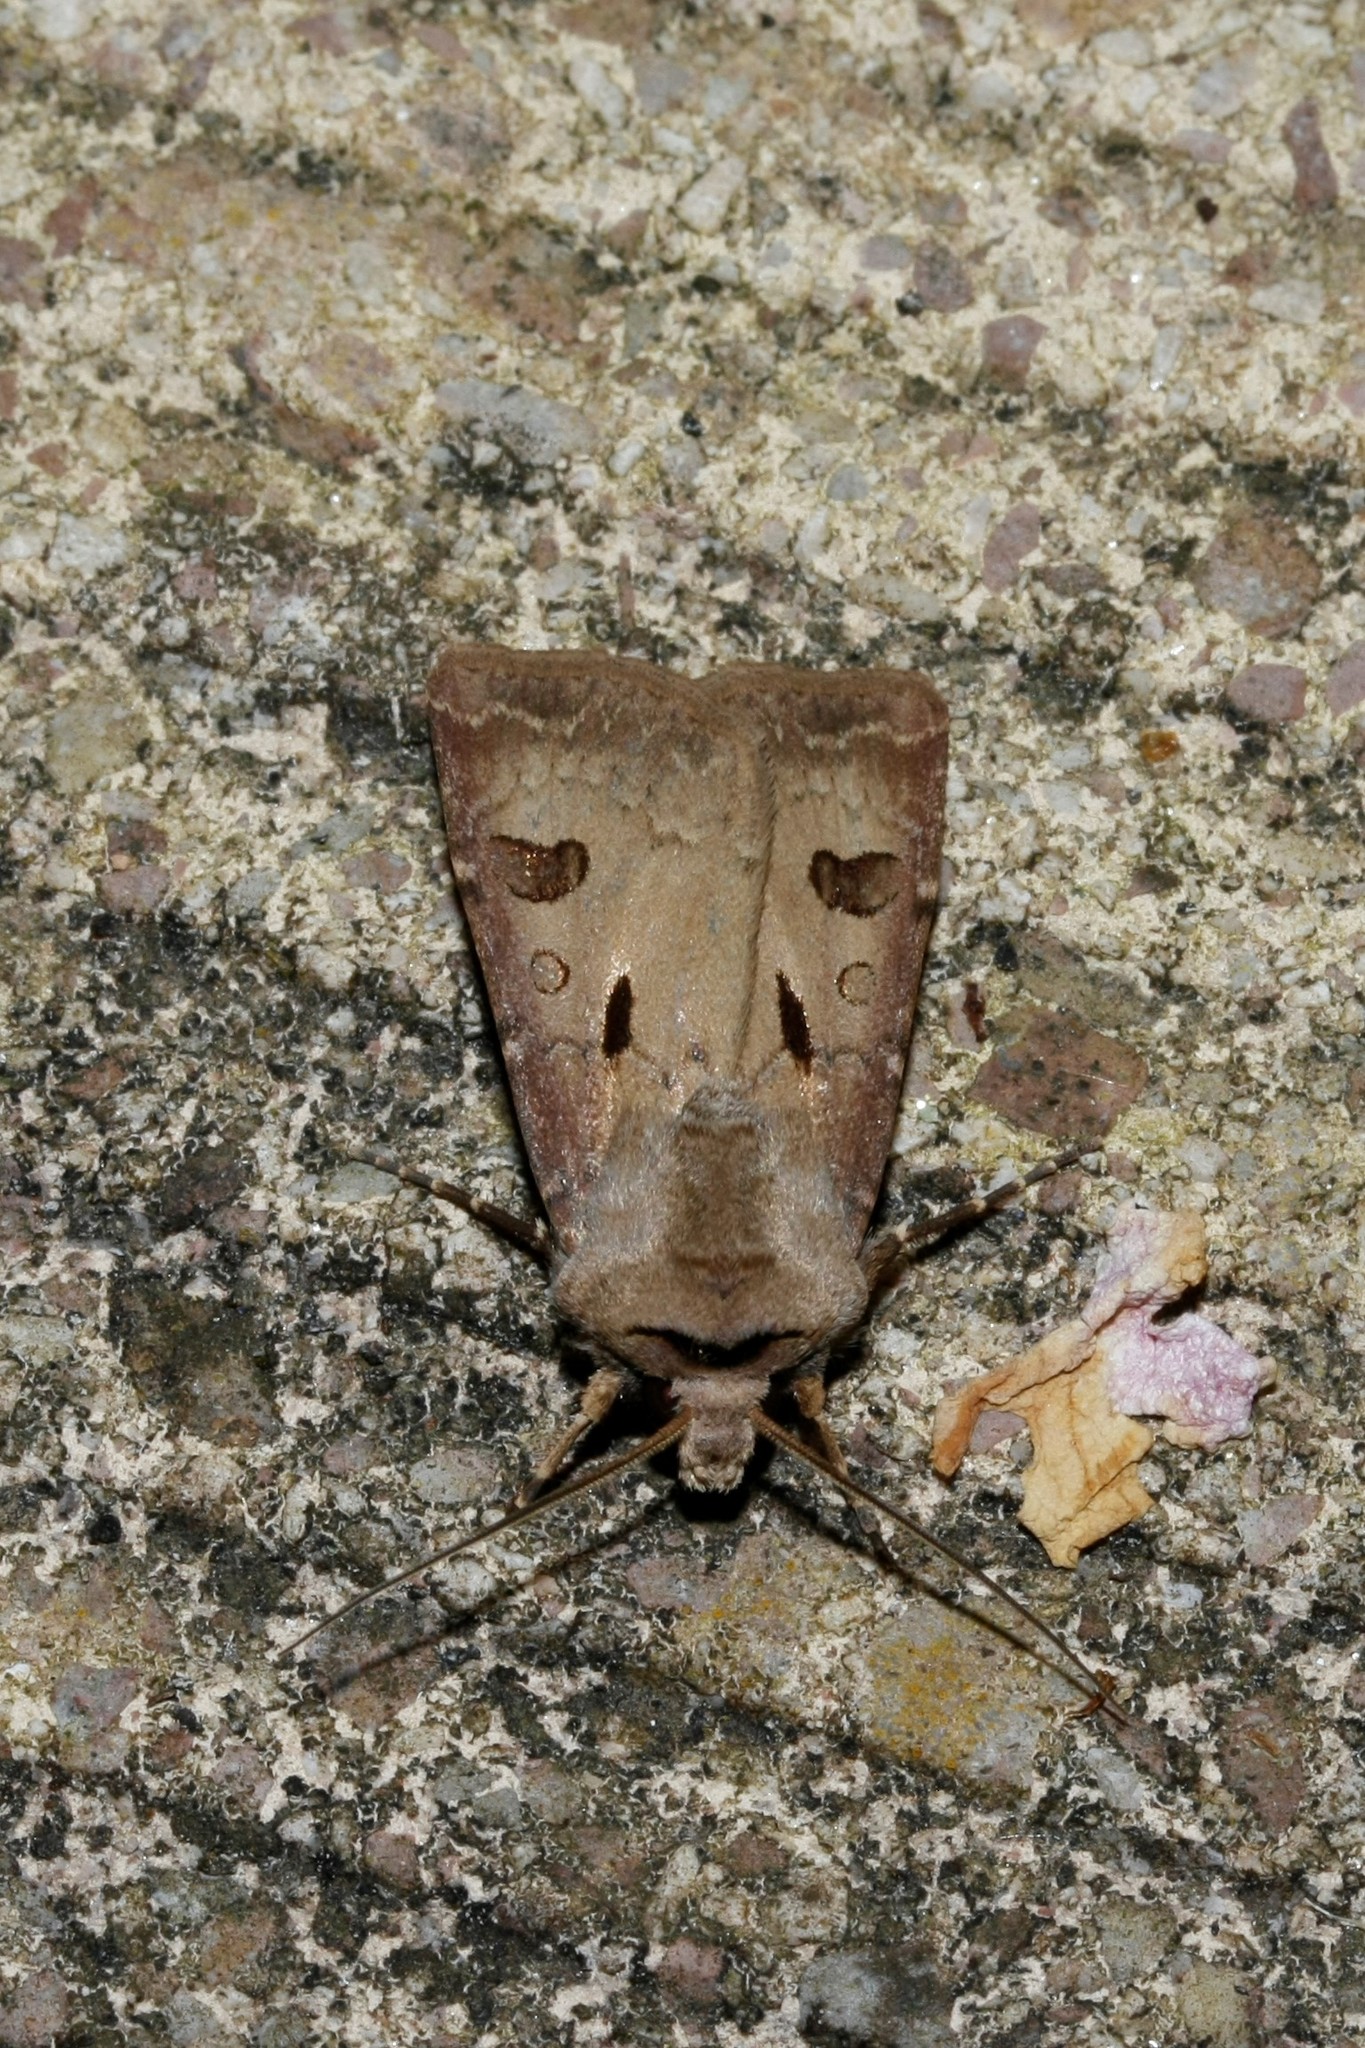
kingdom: Animalia
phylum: Arthropoda
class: Insecta
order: Lepidoptera
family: Noctuidae
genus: Agrotis
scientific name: Agrotis exclamationis
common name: Heart and dart
